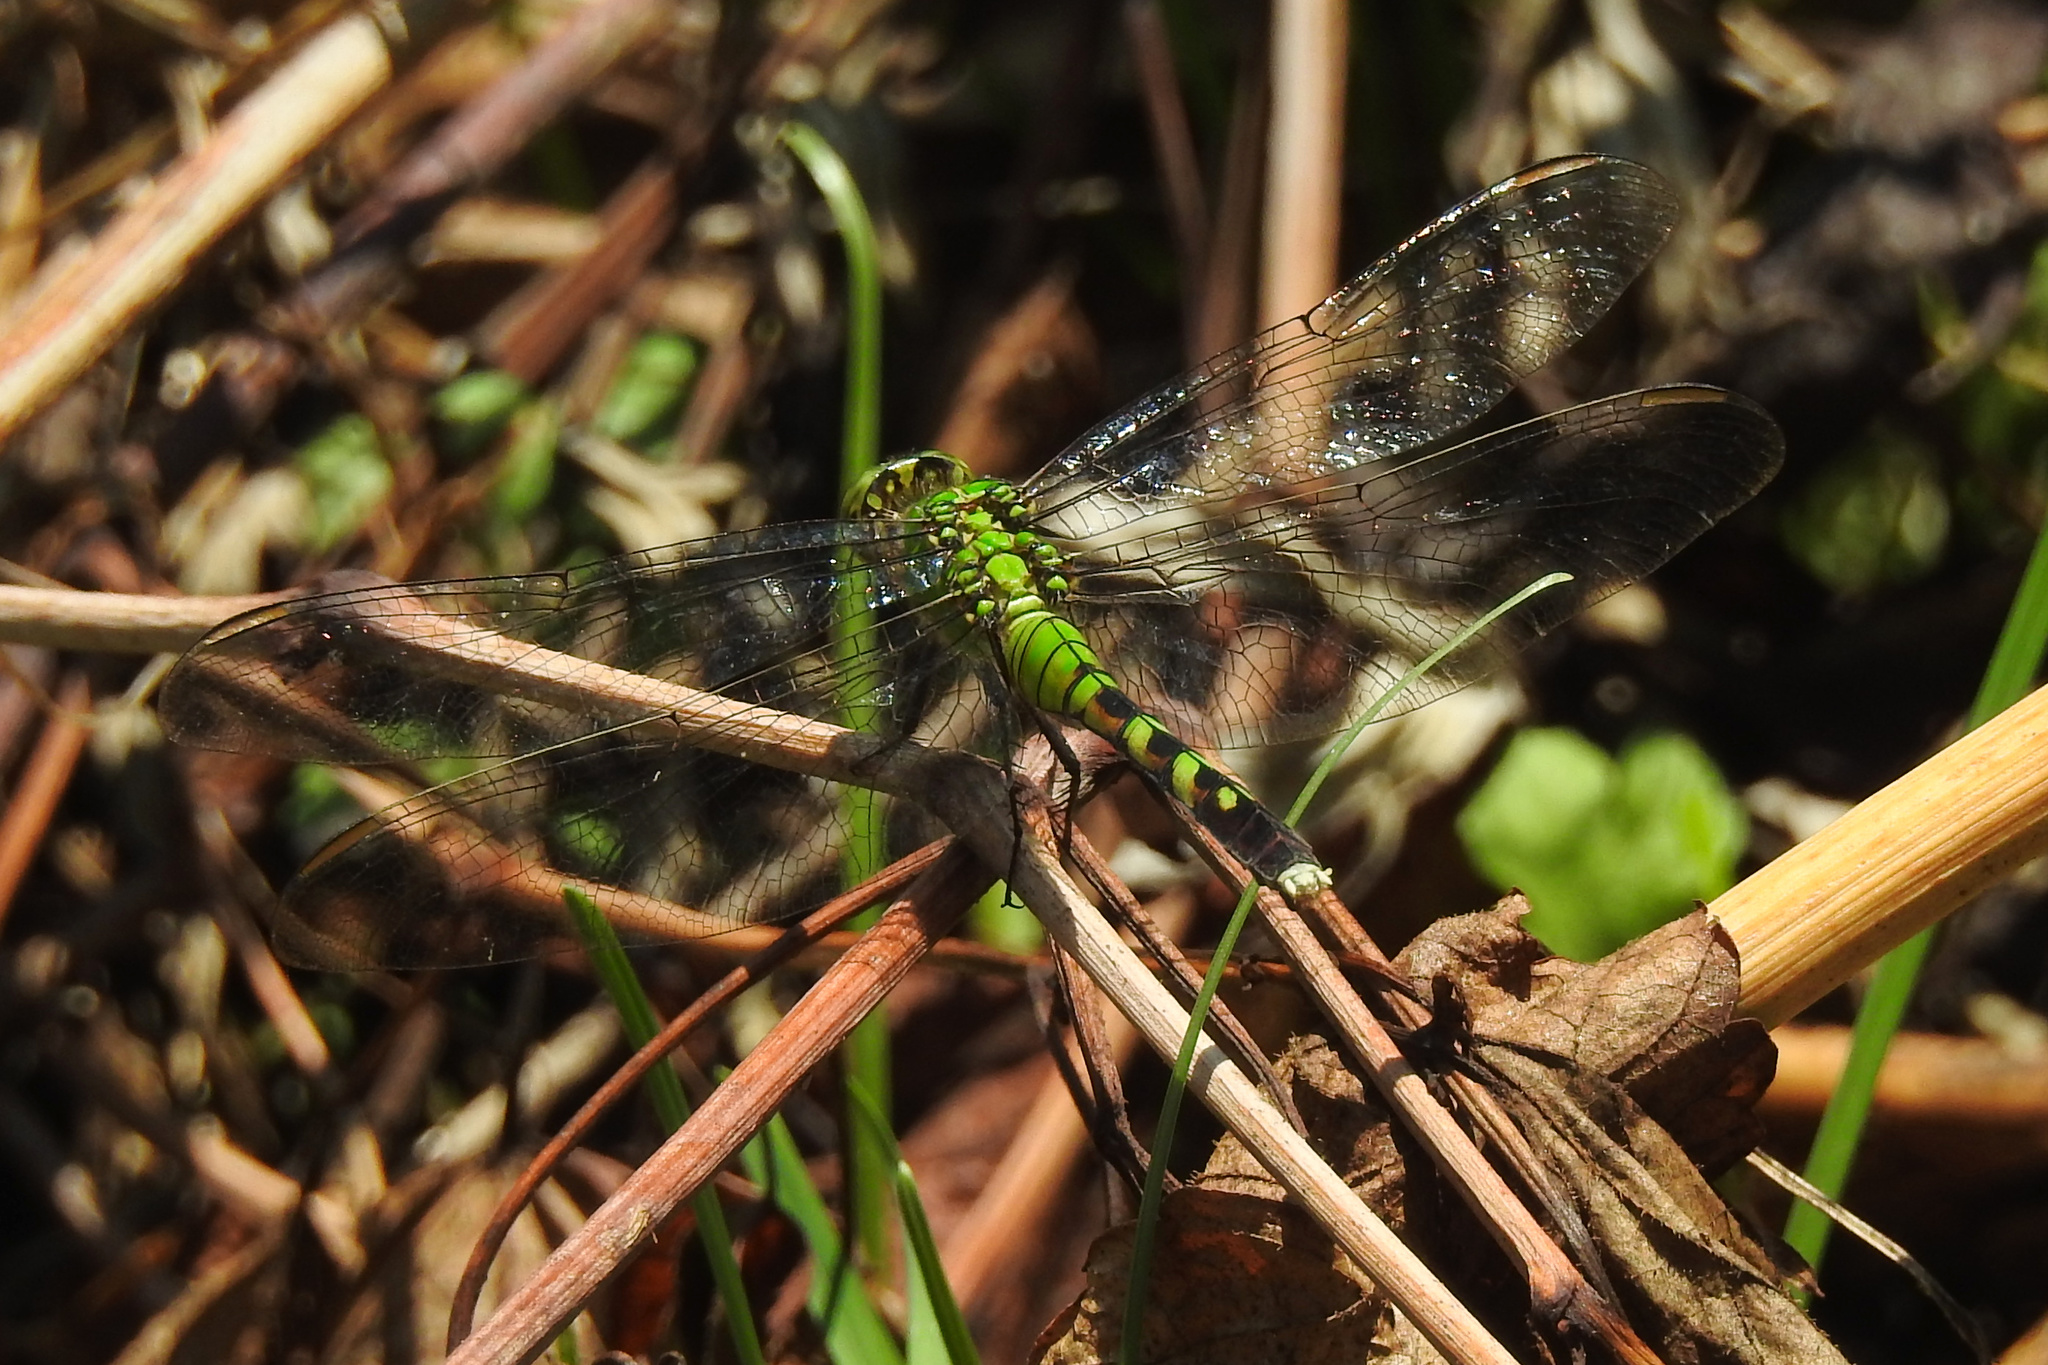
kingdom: Animalia
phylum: Arthropoda
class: Insecta
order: Odonata
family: Libellulidae
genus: Erythemis
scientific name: Erythemis simplicicollis
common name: Eastern pondhawk
